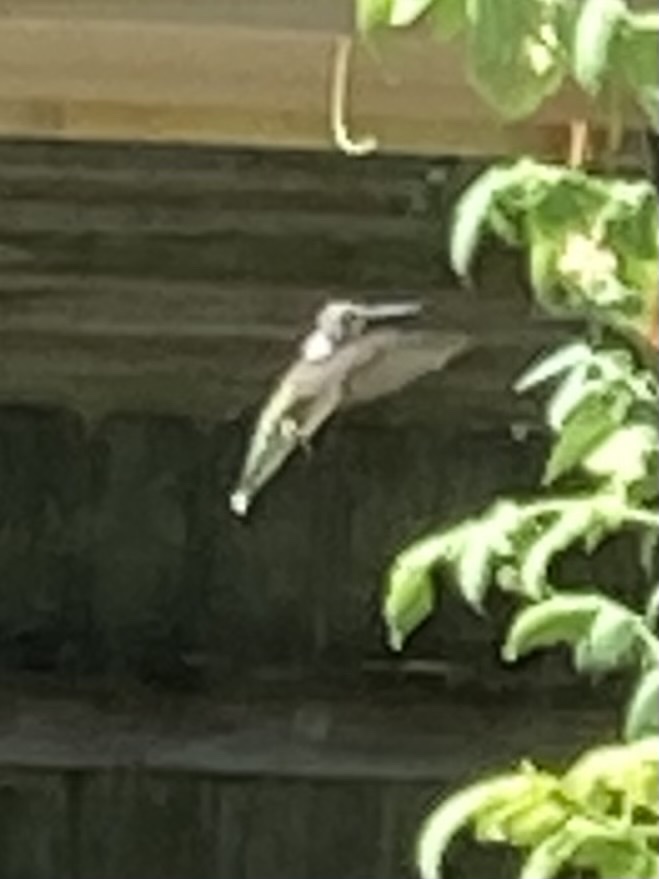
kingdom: Animalia
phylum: Chordata
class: Aves
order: Apodiformes
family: Trochilidae
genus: Archilochus
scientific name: Archilochus colubris
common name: Ruby-throated hummingbird
